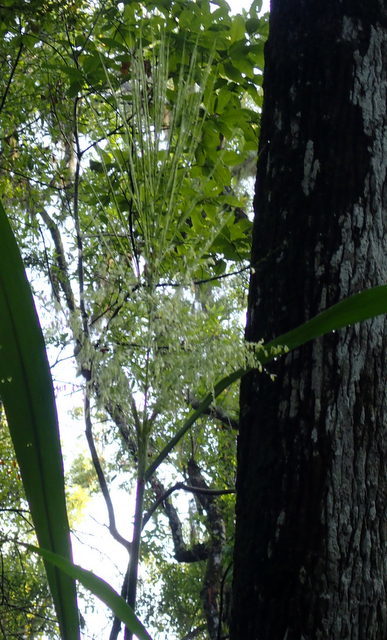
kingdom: Plantae
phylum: Tracheophyta
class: Liliopsida
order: Poales
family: Poaceae
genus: Zizania
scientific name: Zizania aquatica
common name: Annual wildrice
